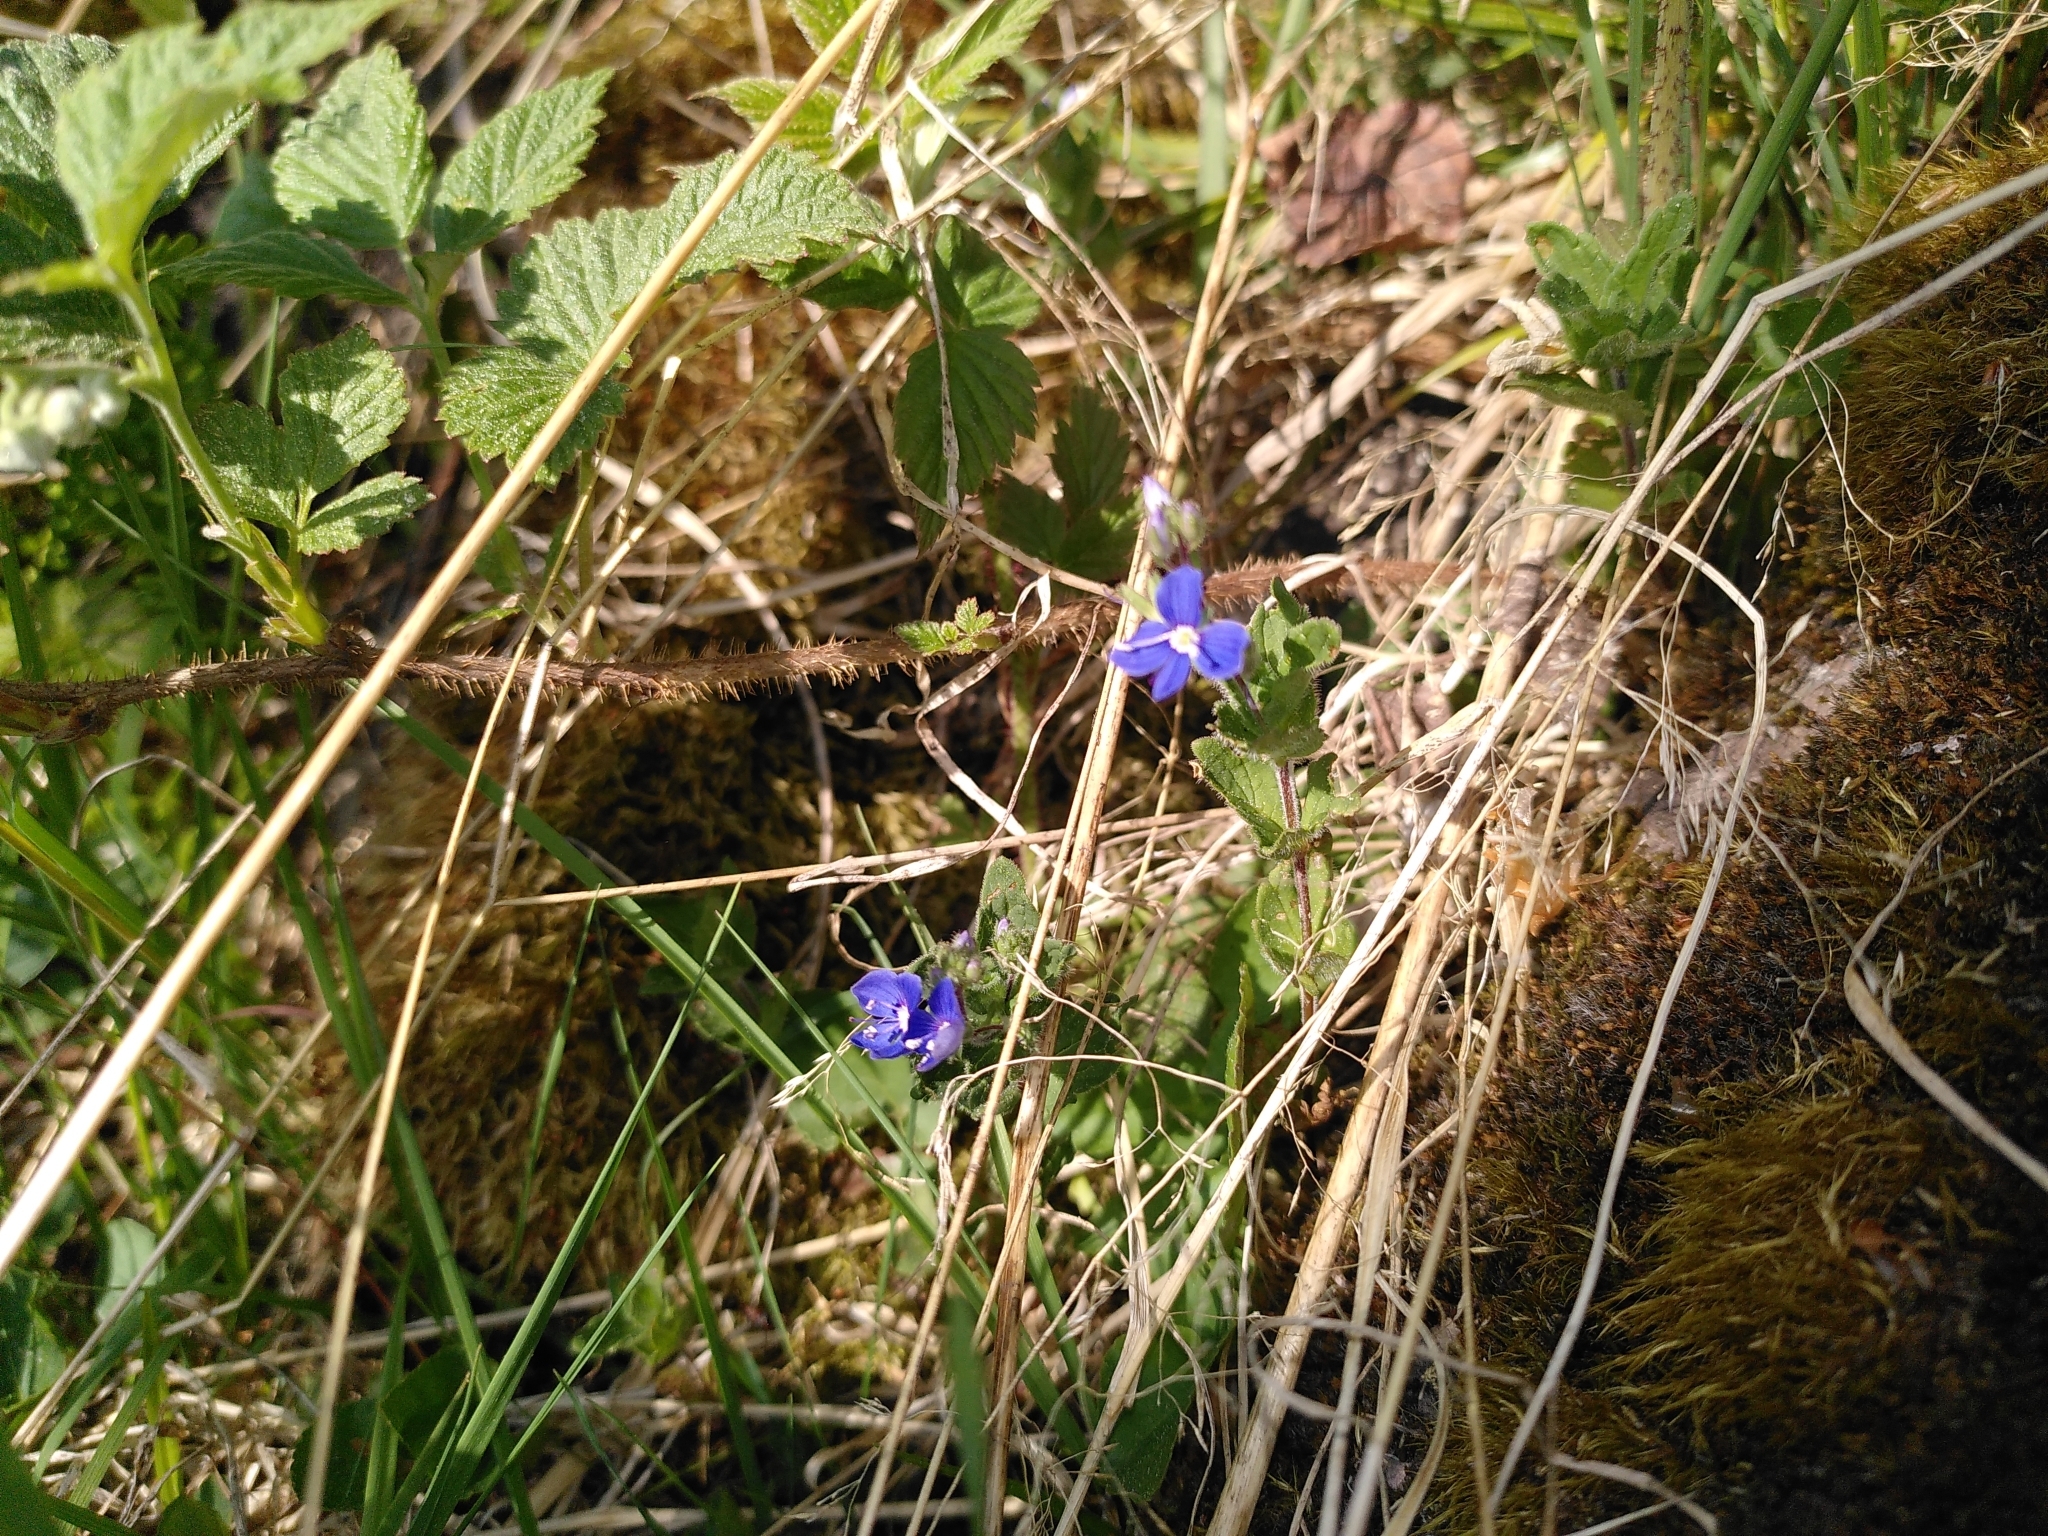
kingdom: Plantae
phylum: Tracheophyta
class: Magnoliopsida
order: Lamiales
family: Plantaginaceae
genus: Veronica
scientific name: Veronica chamaedrys
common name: Germander speedwell
